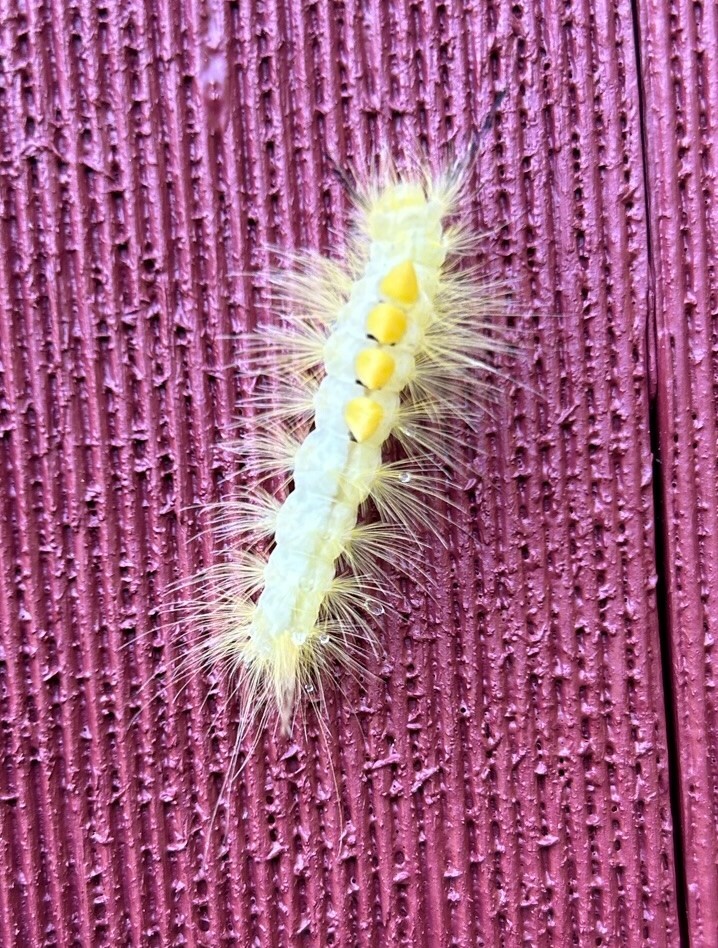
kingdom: Animalia
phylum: Arthropoda
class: Insecta
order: Lepidoptera
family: Erebidae
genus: Orgyia
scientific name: Orgyia definita
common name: Definite tussock moth
